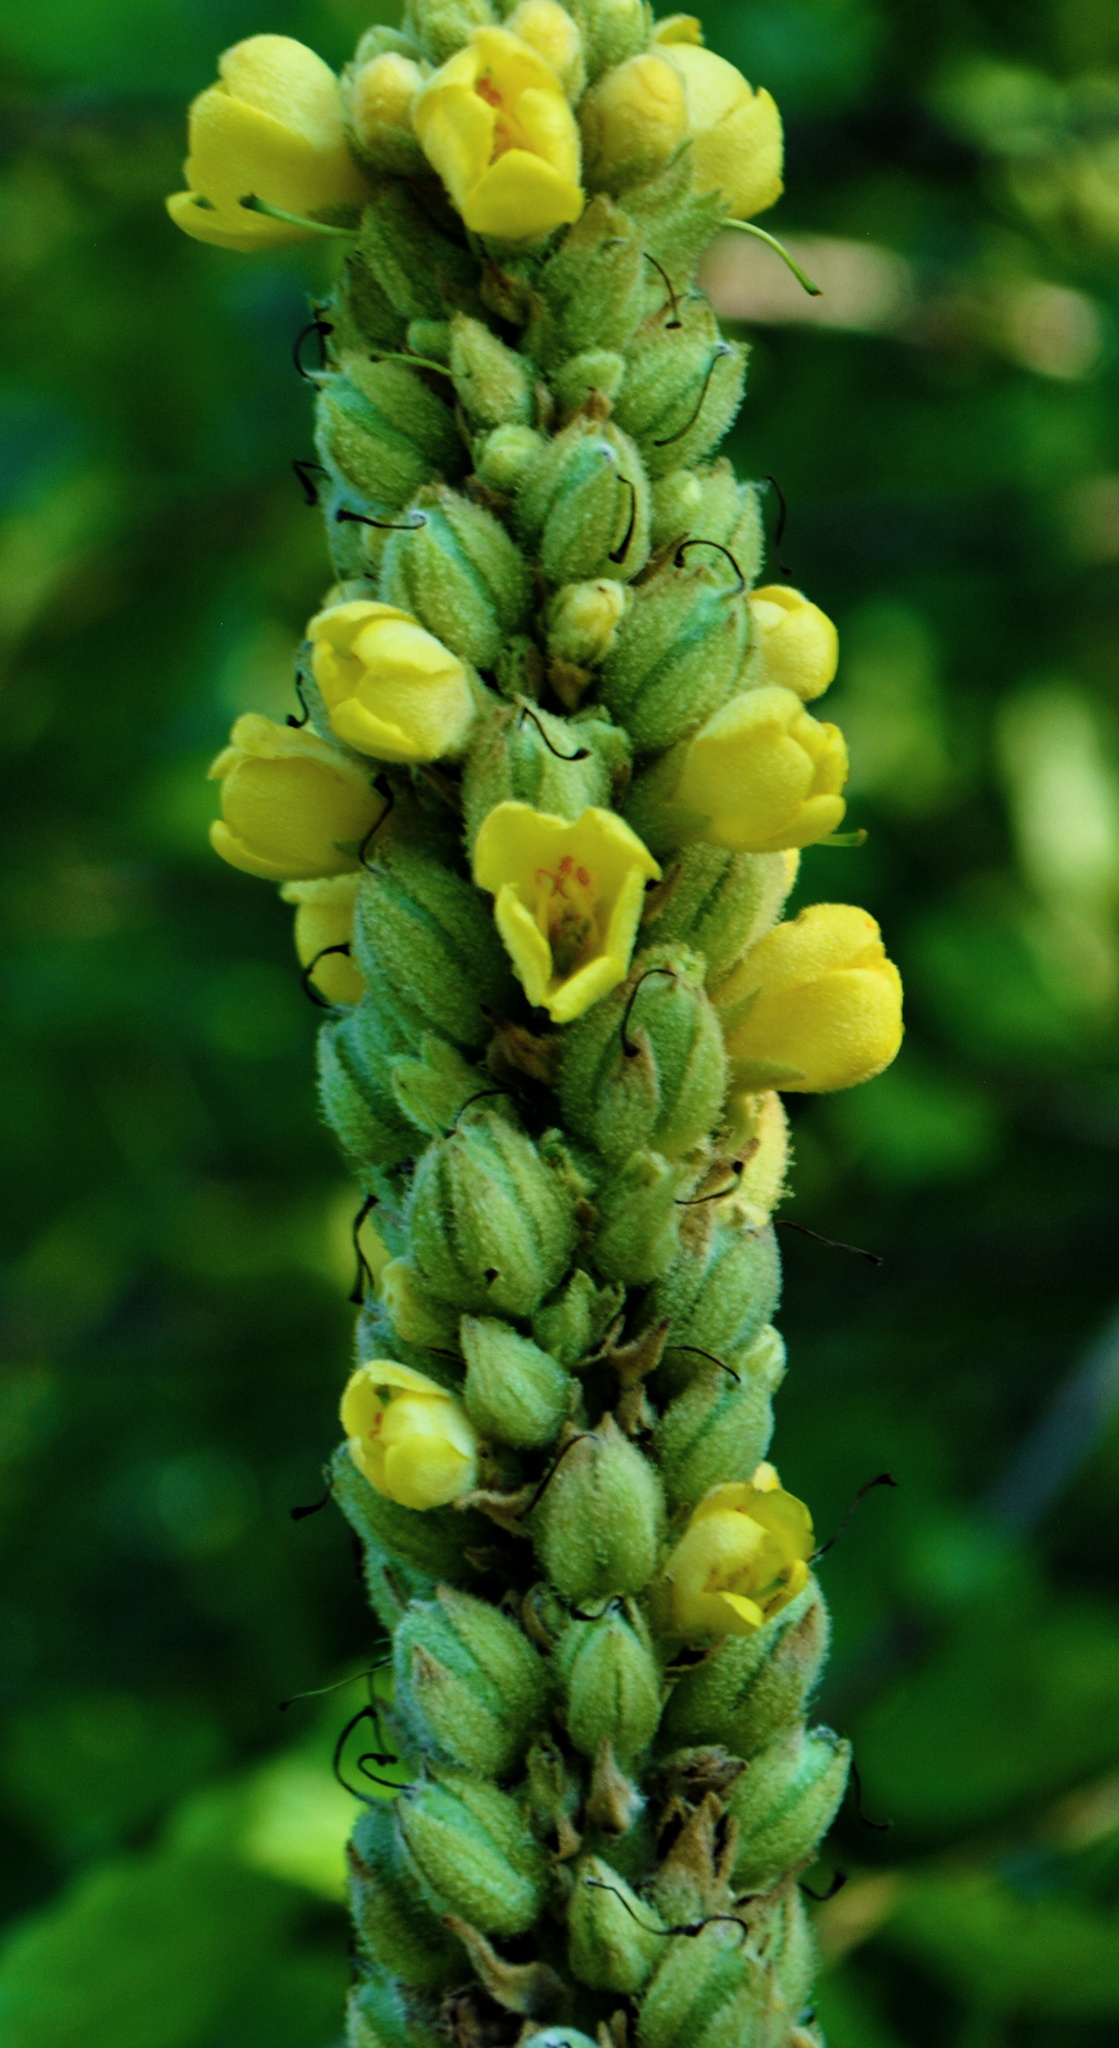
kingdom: Plantae
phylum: Tracheophyta
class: Magnoliopsida
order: Lamiales
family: Scrophulariaceae
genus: Verbascum
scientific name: Verbascum thapsus
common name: Common mullein
